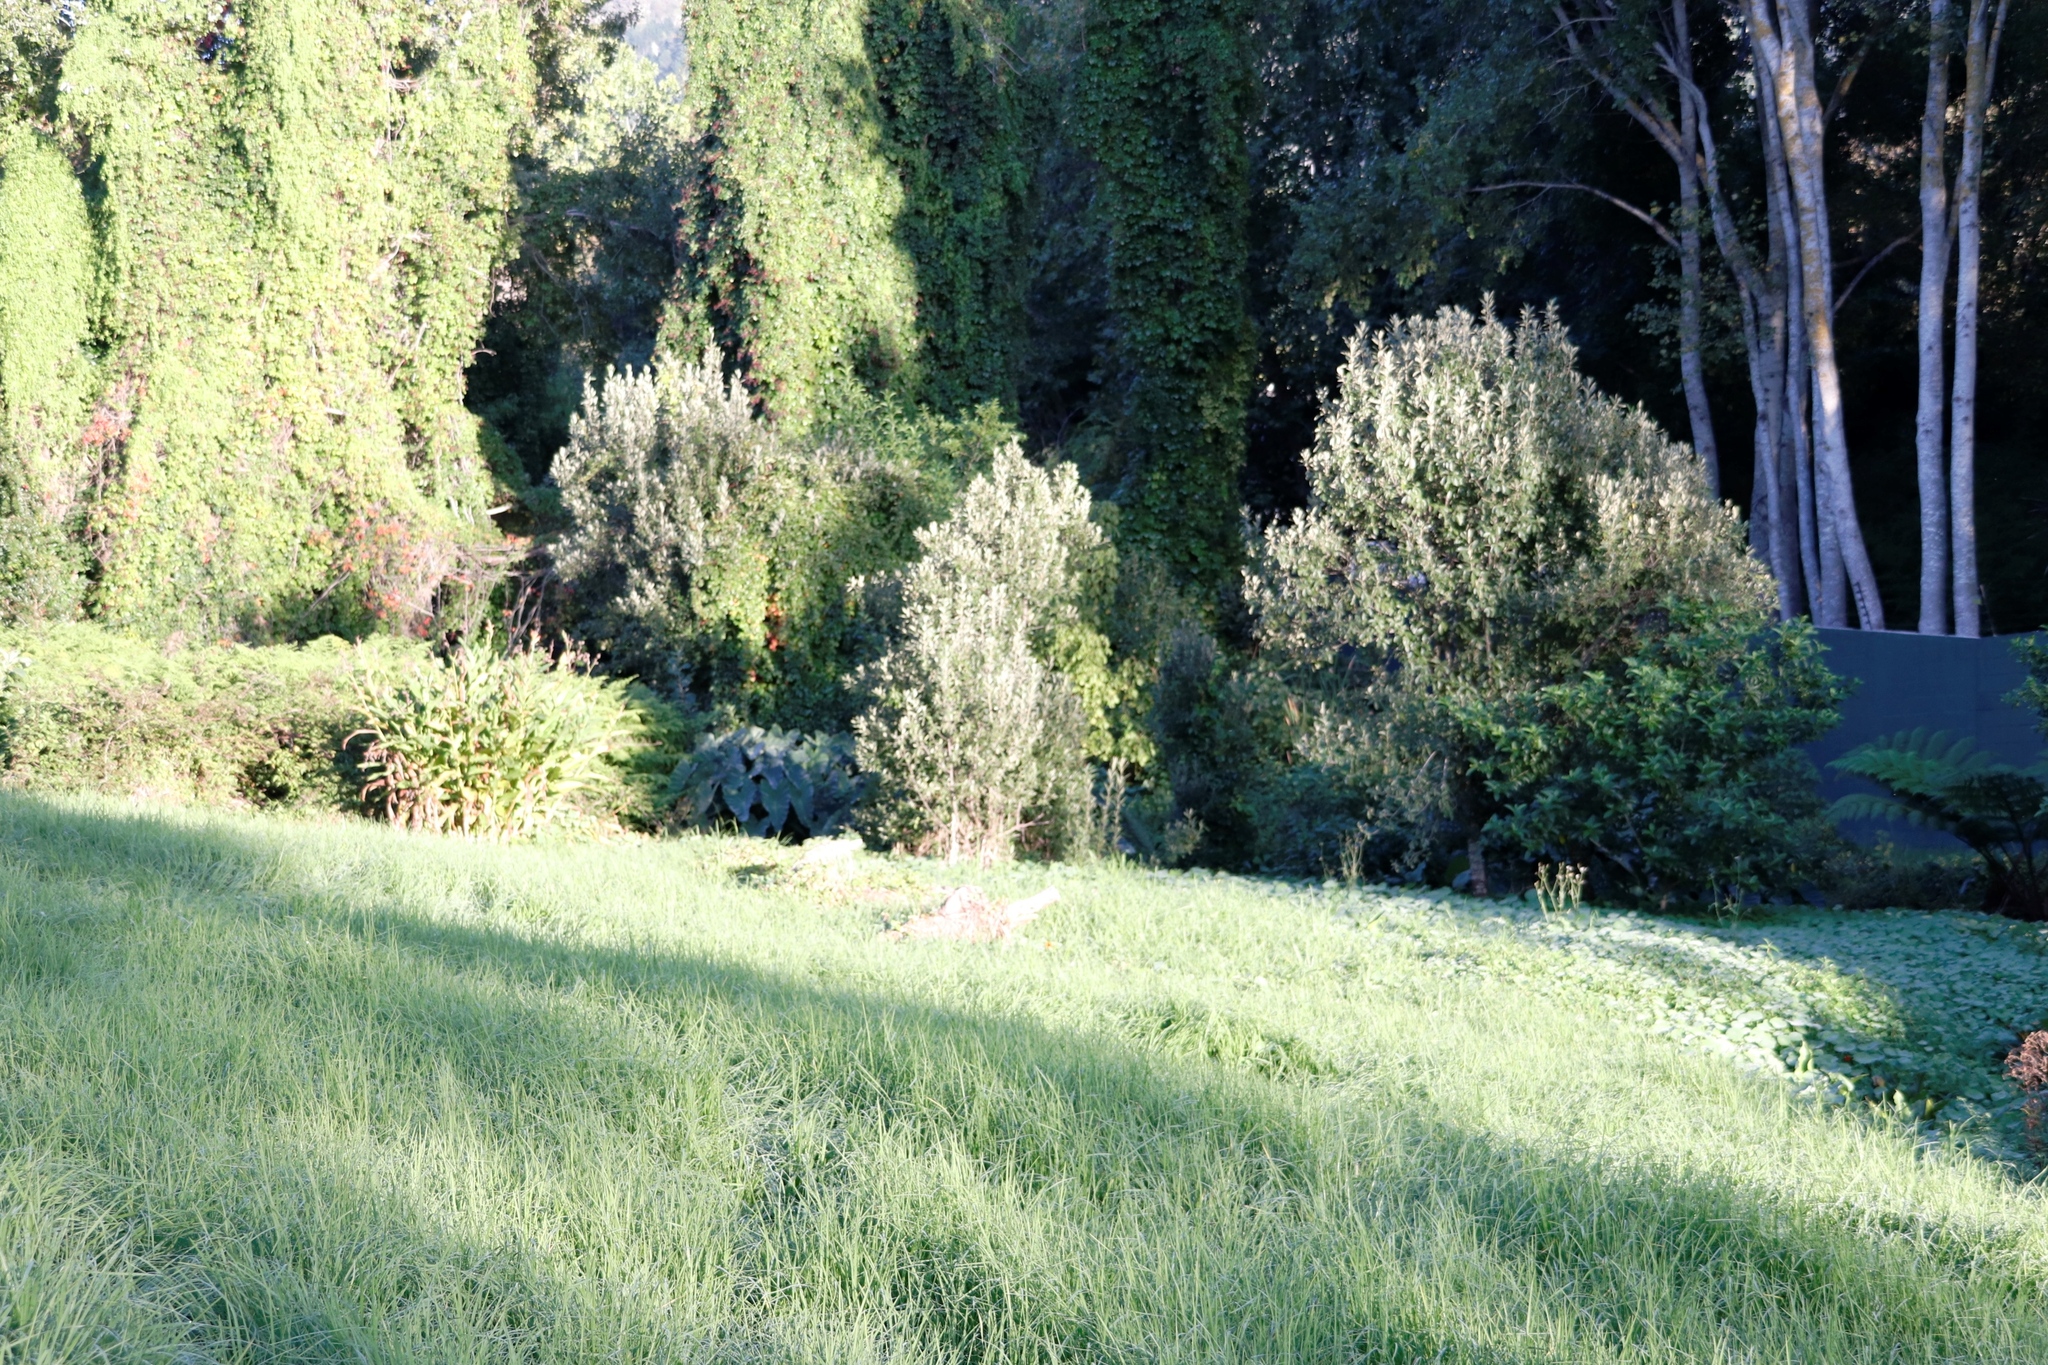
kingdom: Plantae
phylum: Tracheophyta
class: Magnoliopsida
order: Malpighiales
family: Achariaceae
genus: Kiggelaria
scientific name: Kiggelaria africana
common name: Wild peach
